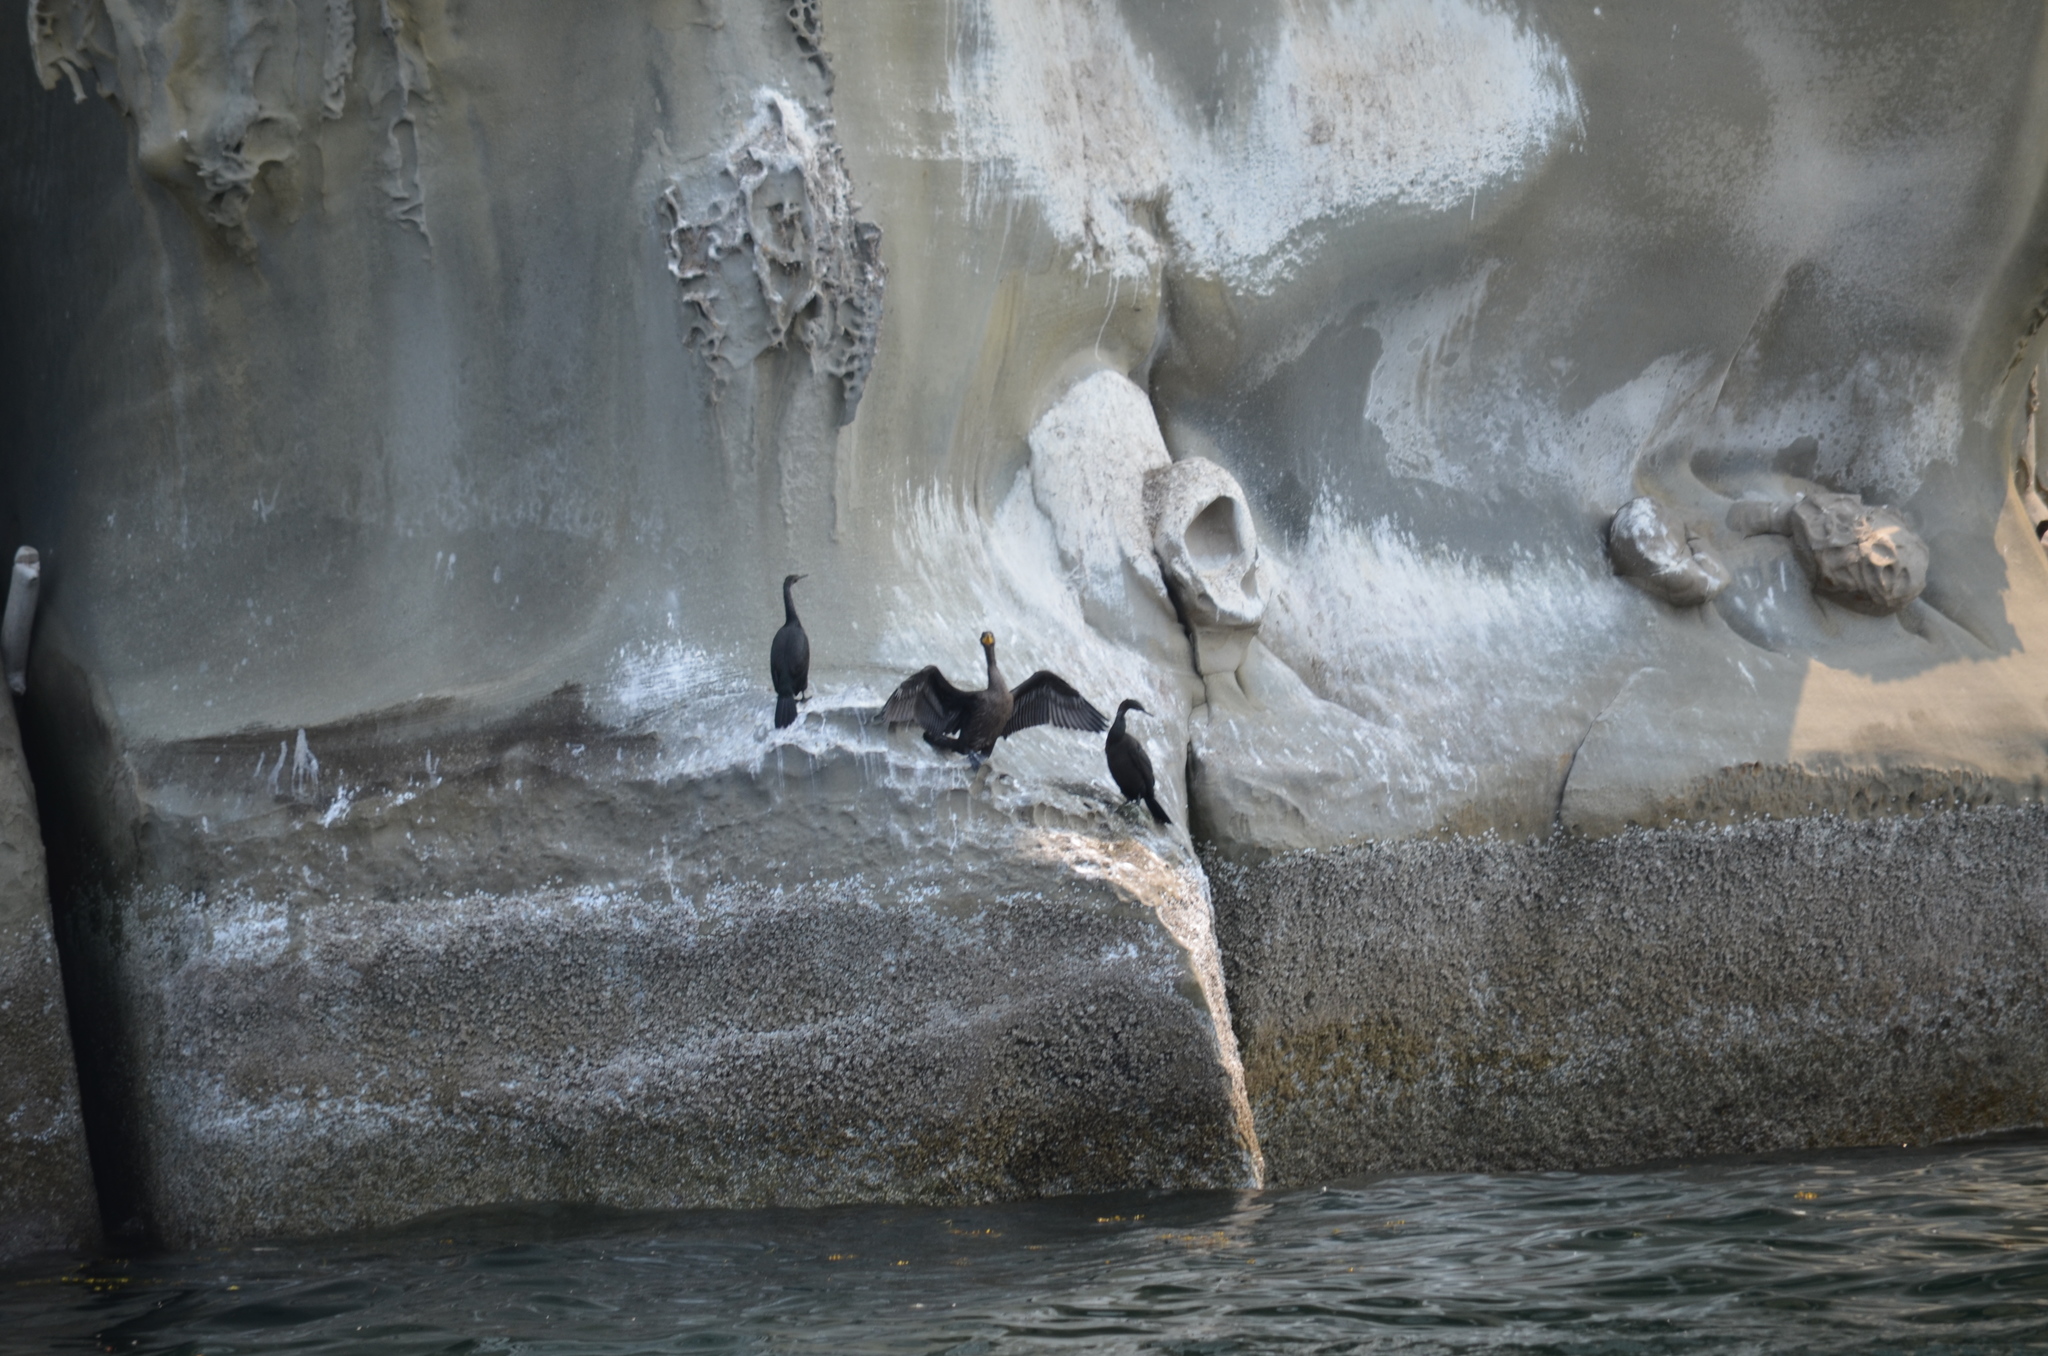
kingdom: Animalia
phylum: Chordata
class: Aves
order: Suliformes
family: Phalacrocoracidae
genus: Phalacrocorax
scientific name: Phalacrocorax auritus
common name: Double-crested cormorant
